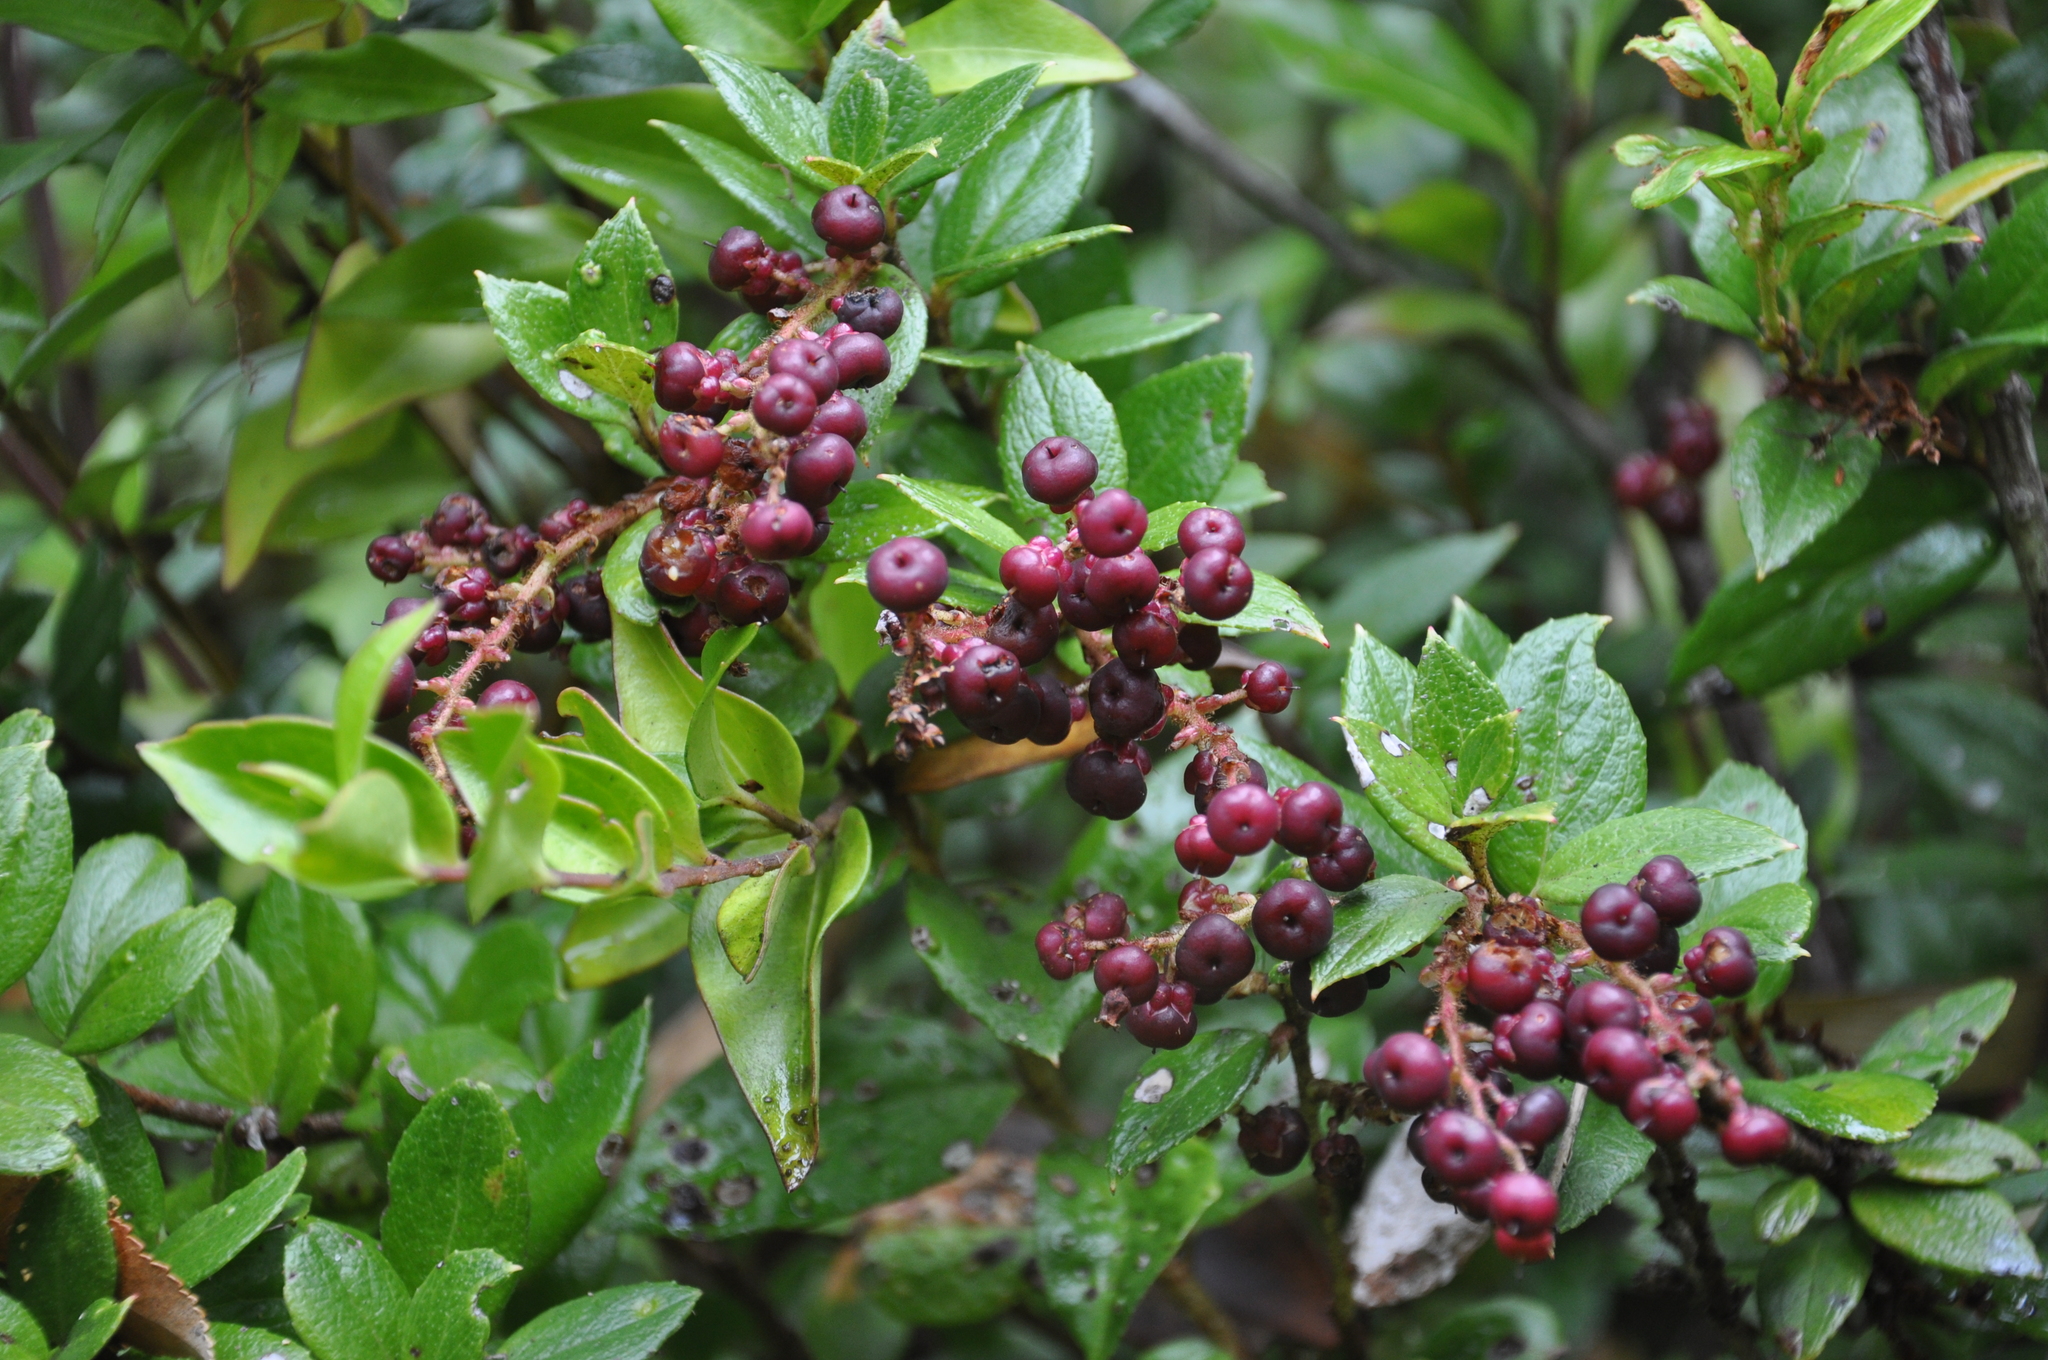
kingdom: Plantae
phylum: Tracheophyta
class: Magnoliopsida
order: Ericales
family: Ericaceae
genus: Gaultheria
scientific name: Gaultheria insana
